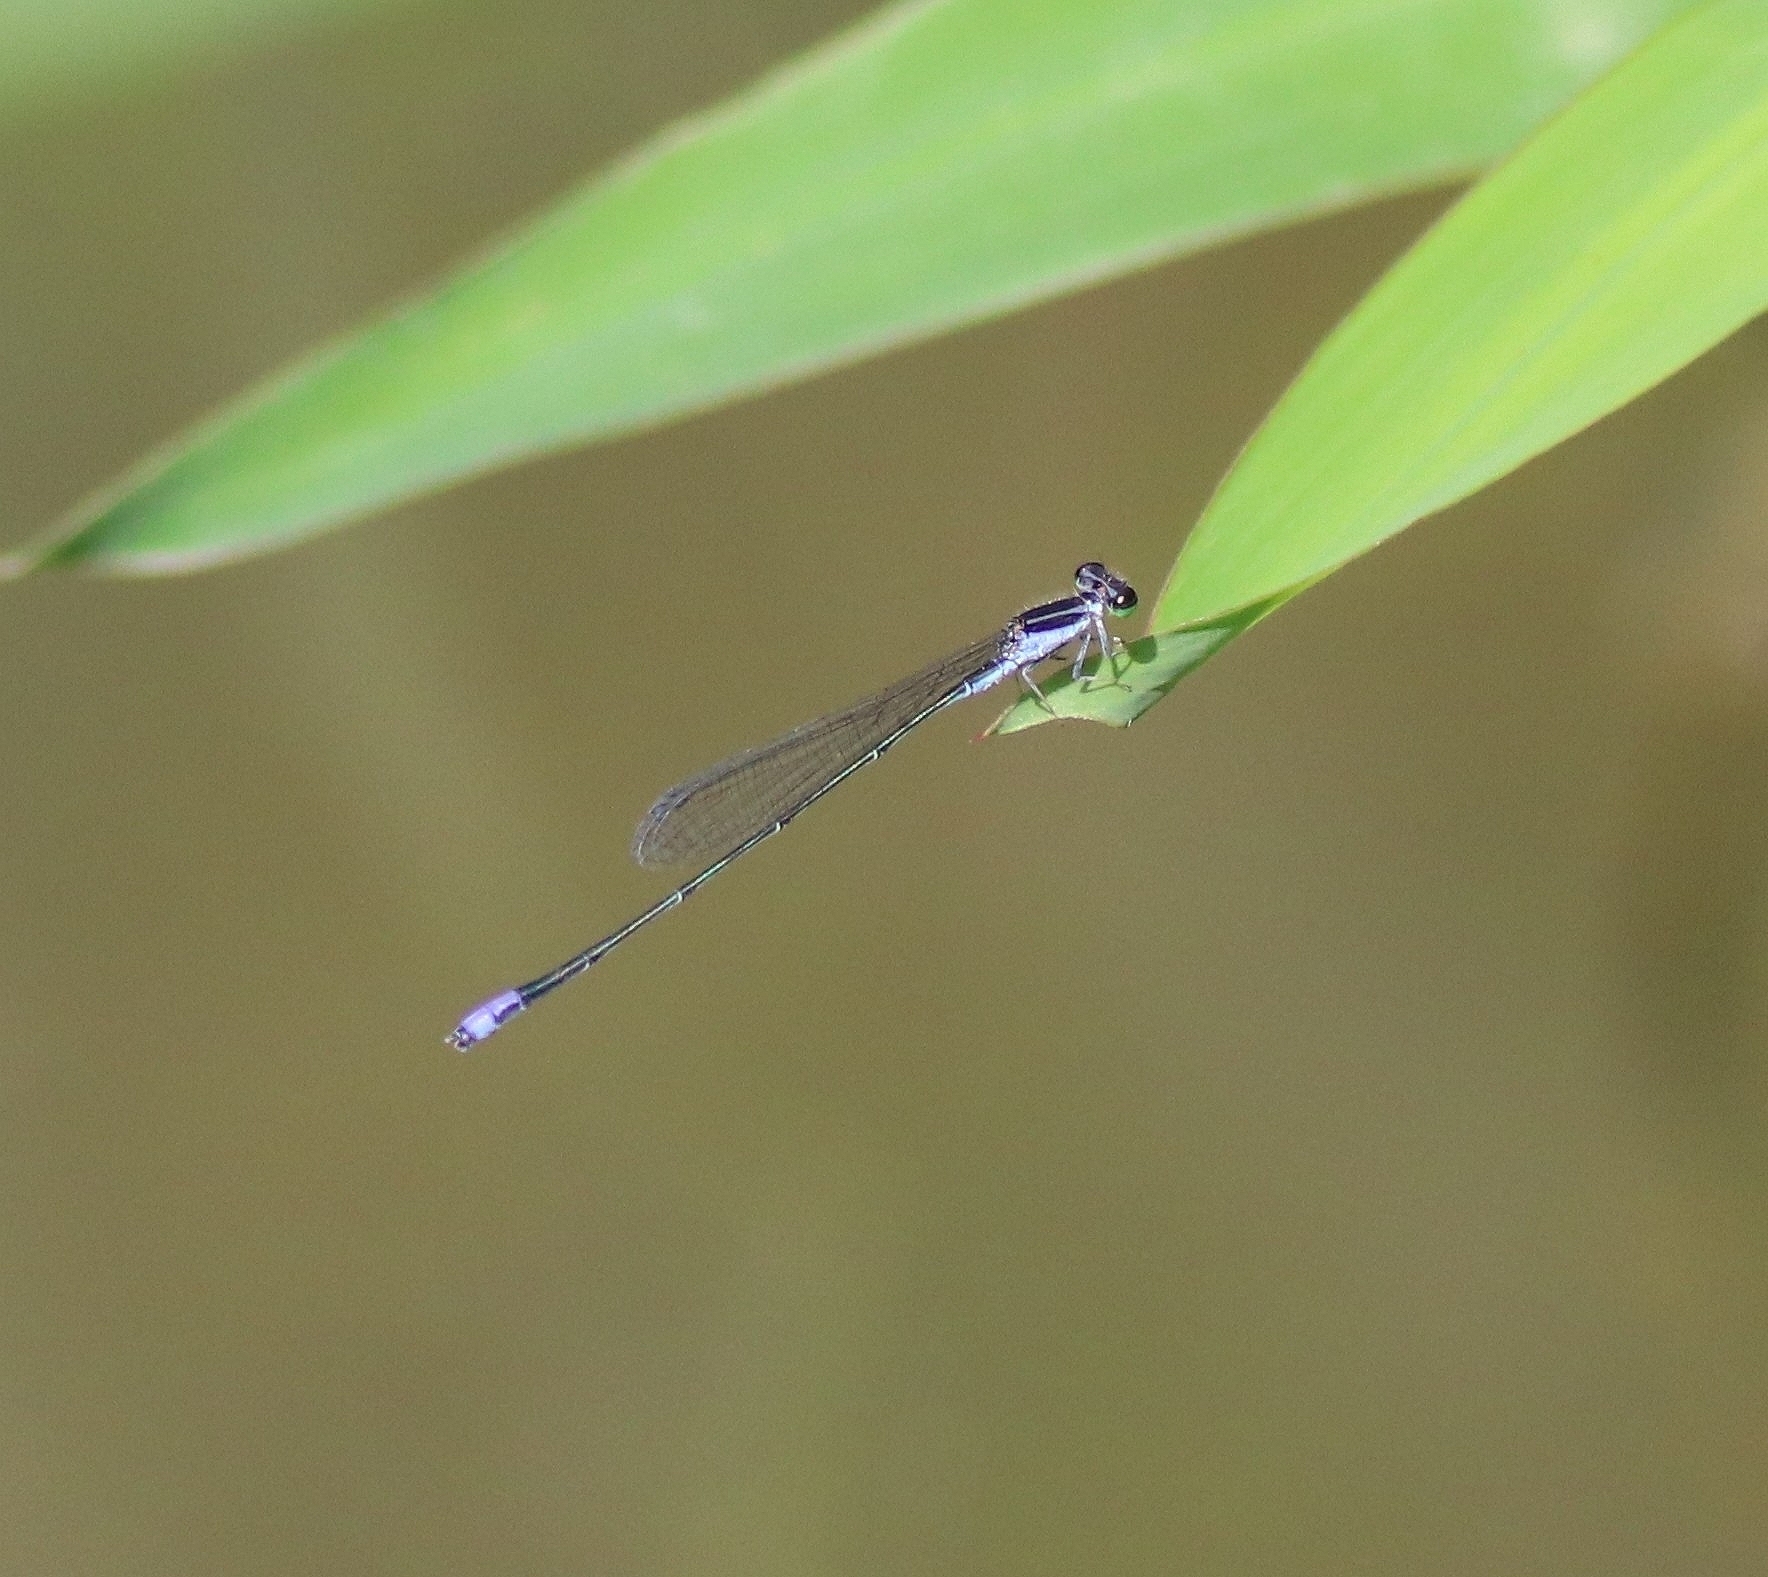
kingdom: Animalia
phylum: Arthropoda
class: Insecta
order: Odonata
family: Coenagrionidae
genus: Aciagrion
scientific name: Aciagrion approximans
